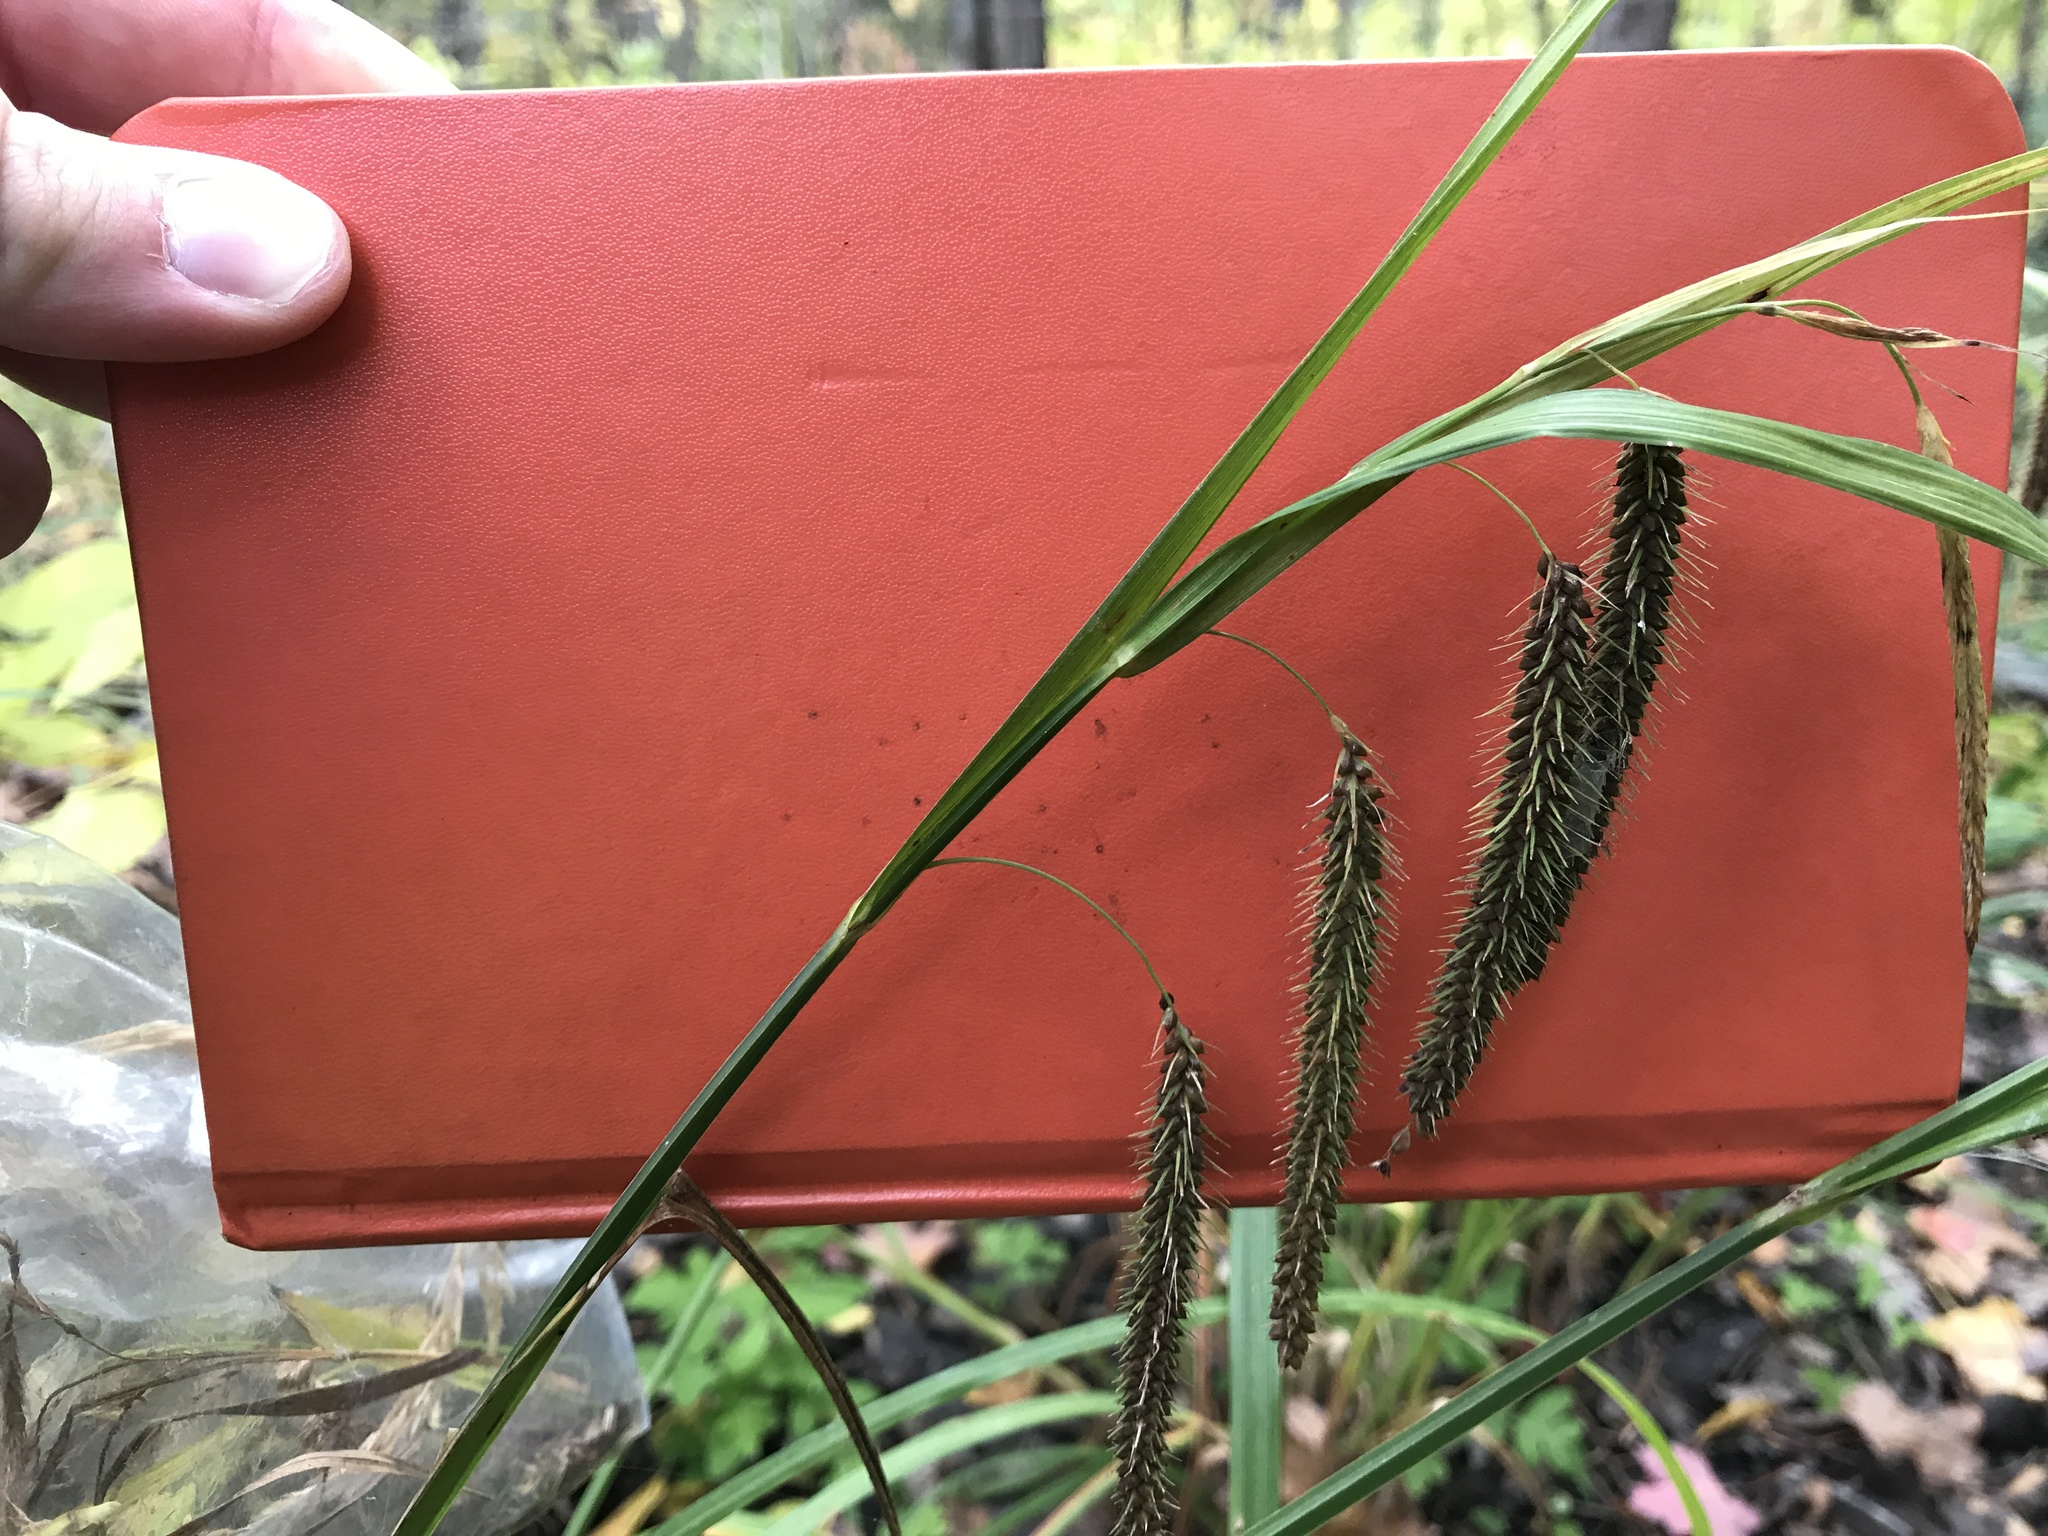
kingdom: Plantae
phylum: Tracheophyta
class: Liliopsida
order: Poales
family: Cyperaceae
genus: Carex
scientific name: Carex crinita
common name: Fringed sedge
